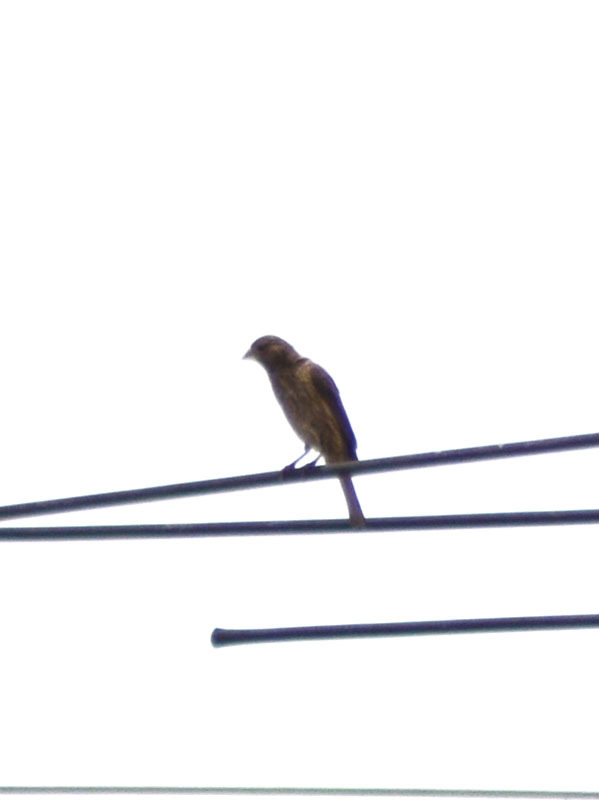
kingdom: Animalia
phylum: Chordata
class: Aves
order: Passeriformes
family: Fringillidae
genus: Haemorhous
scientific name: Haemorhous mexicanus
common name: House finch
